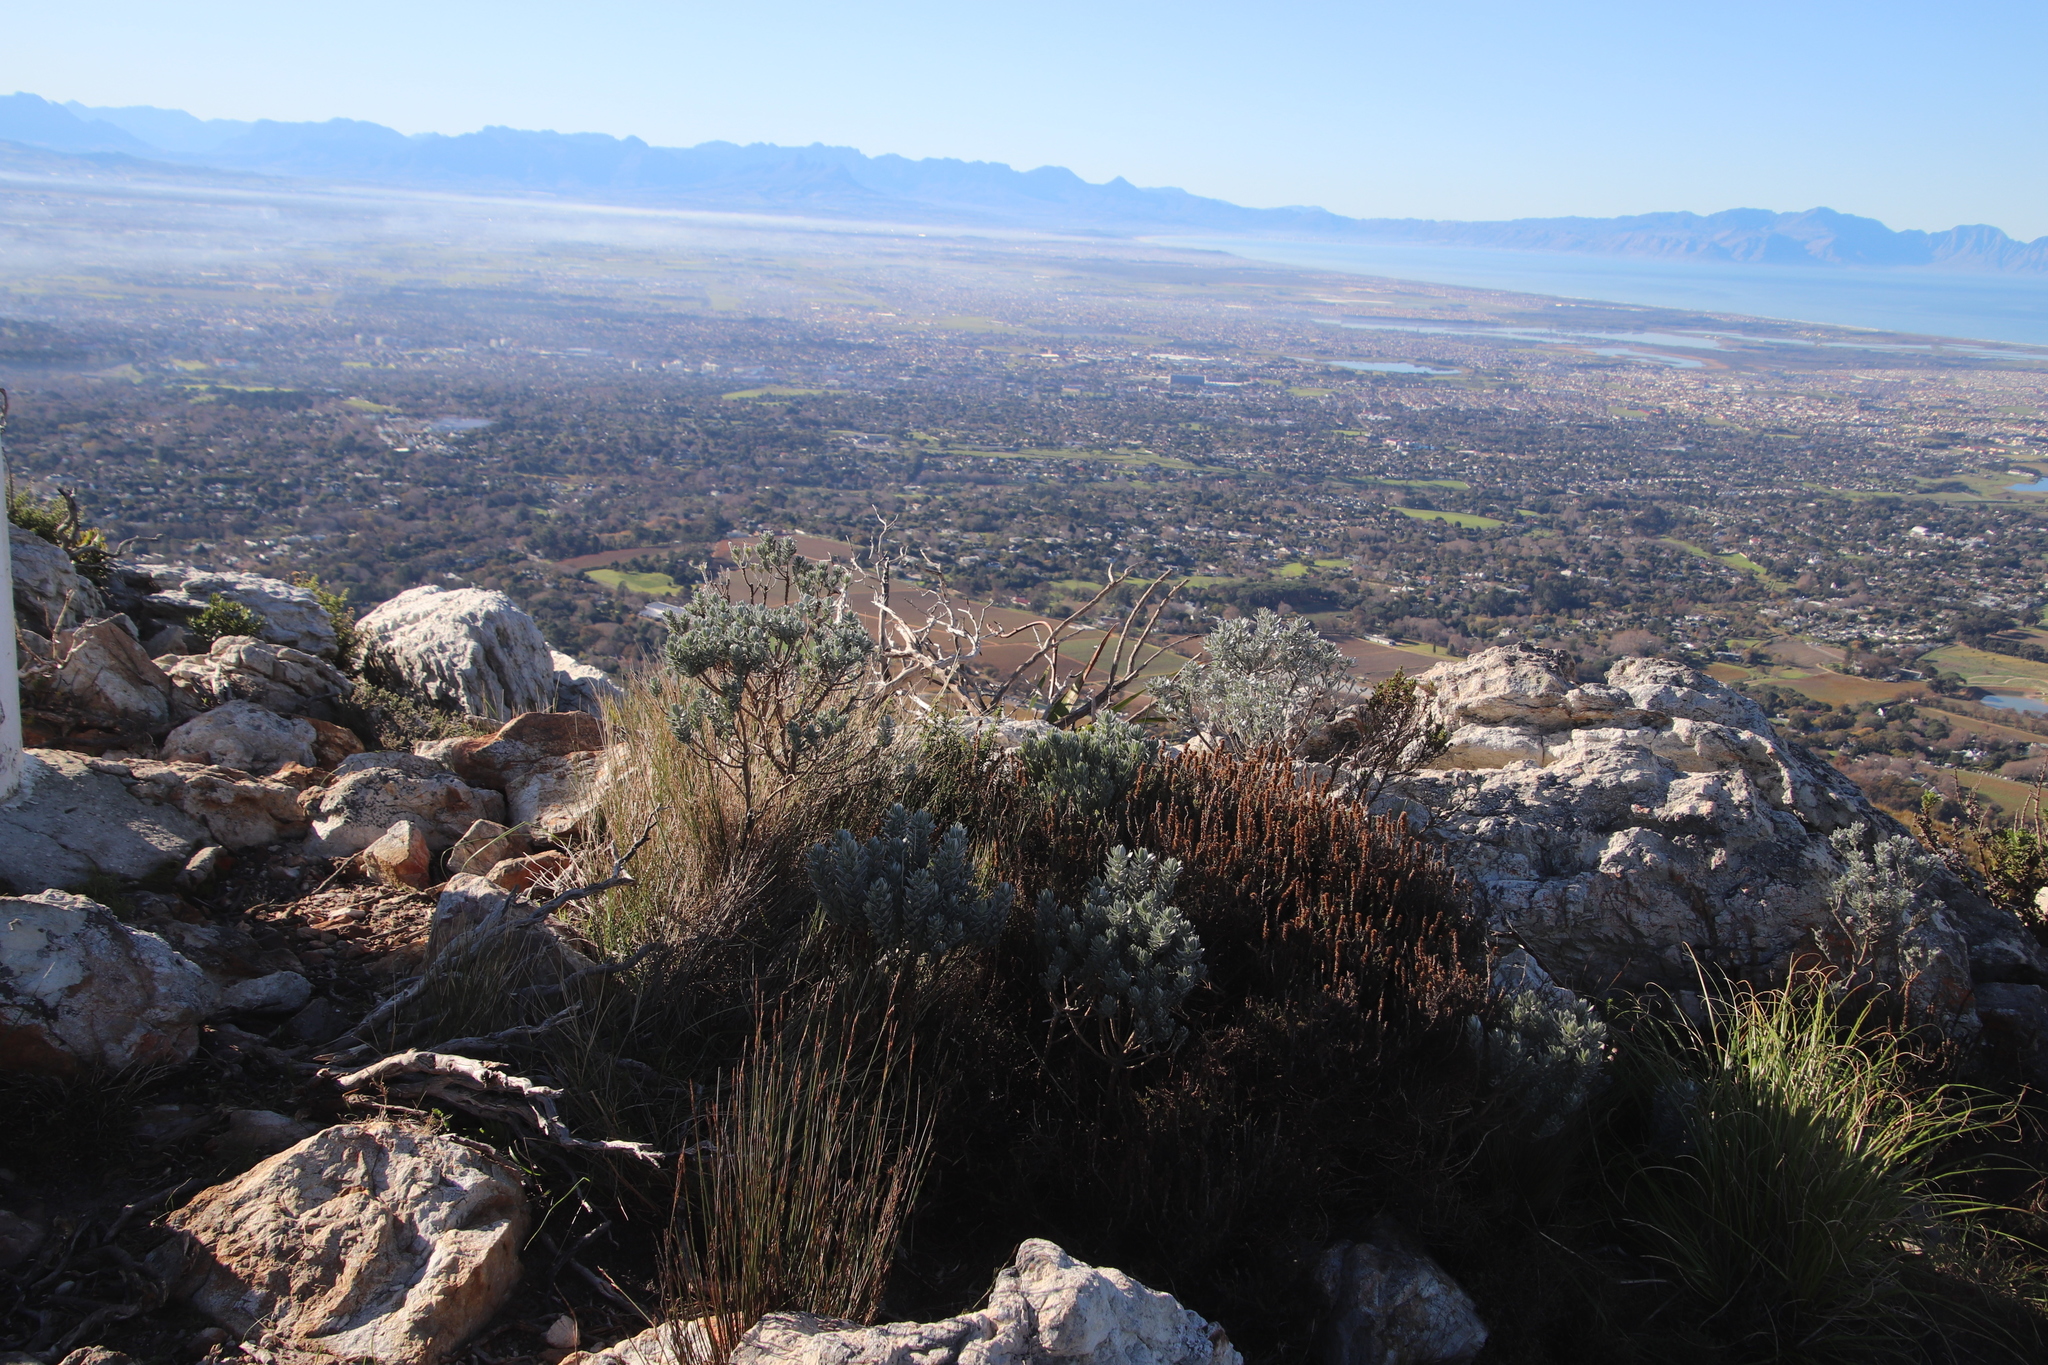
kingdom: Plantae
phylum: Tracheophyta
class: Magnoliopsida
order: Fabales
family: Fabaceae
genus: Xiphotheca
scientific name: Xiphotheca fruticosa
